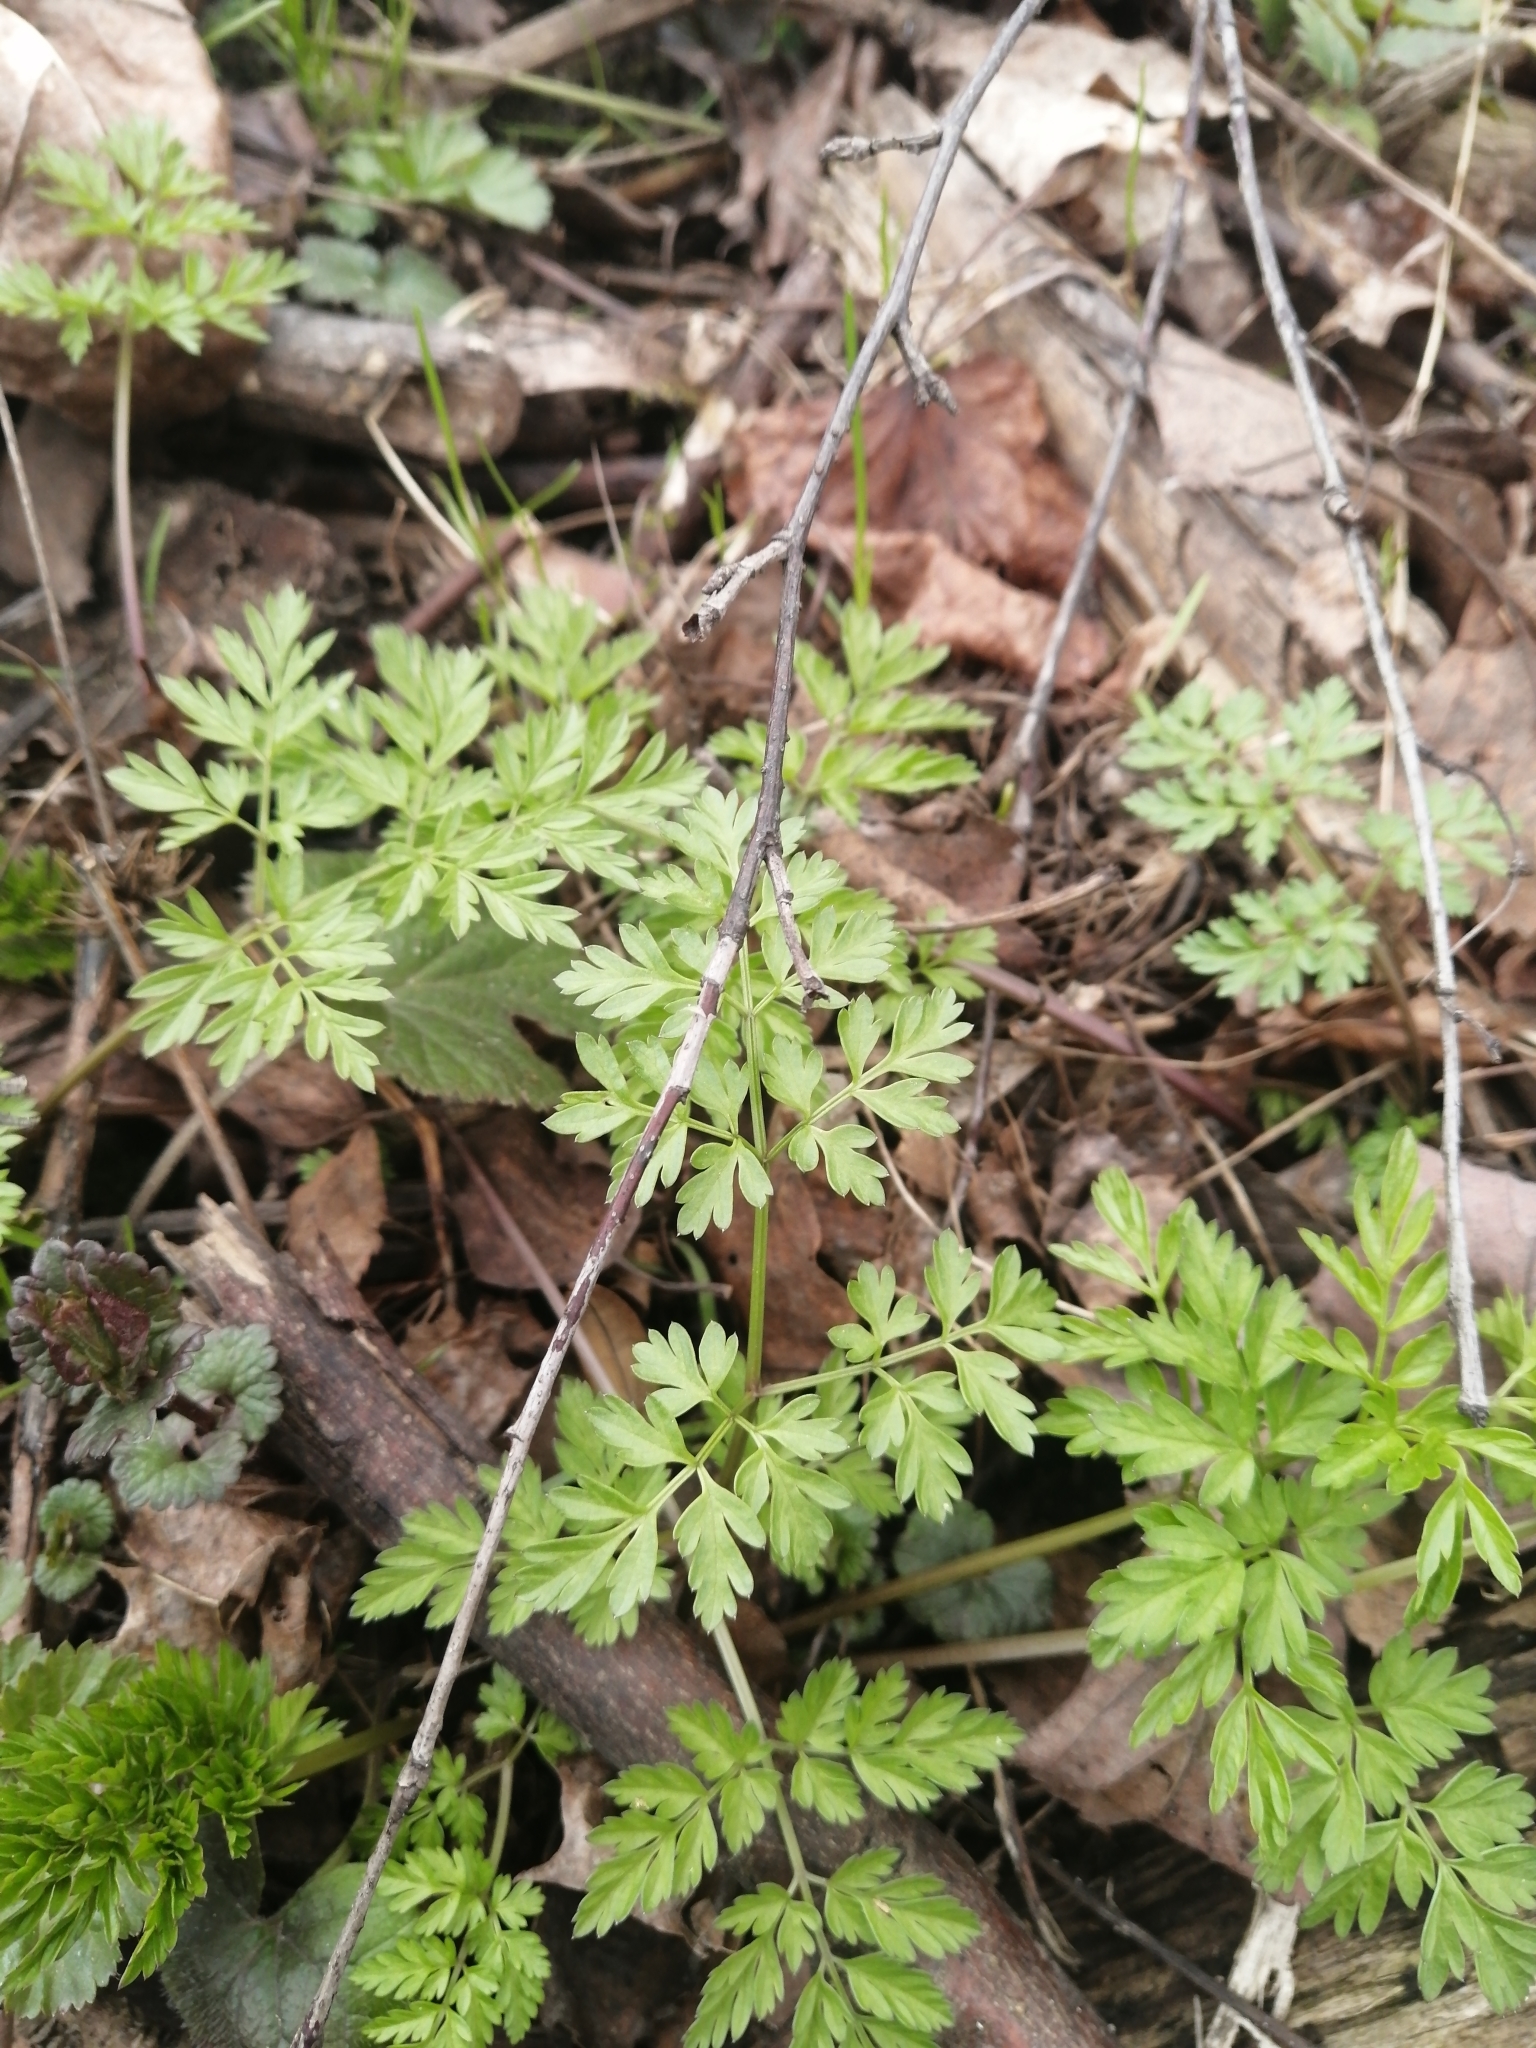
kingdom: Plantae
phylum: Tracheophyta
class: Magnoliopsida
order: Apiales
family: Apiaceae
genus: Anthriscus
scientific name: Anthriscus sylvestris
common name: Cow parsley
